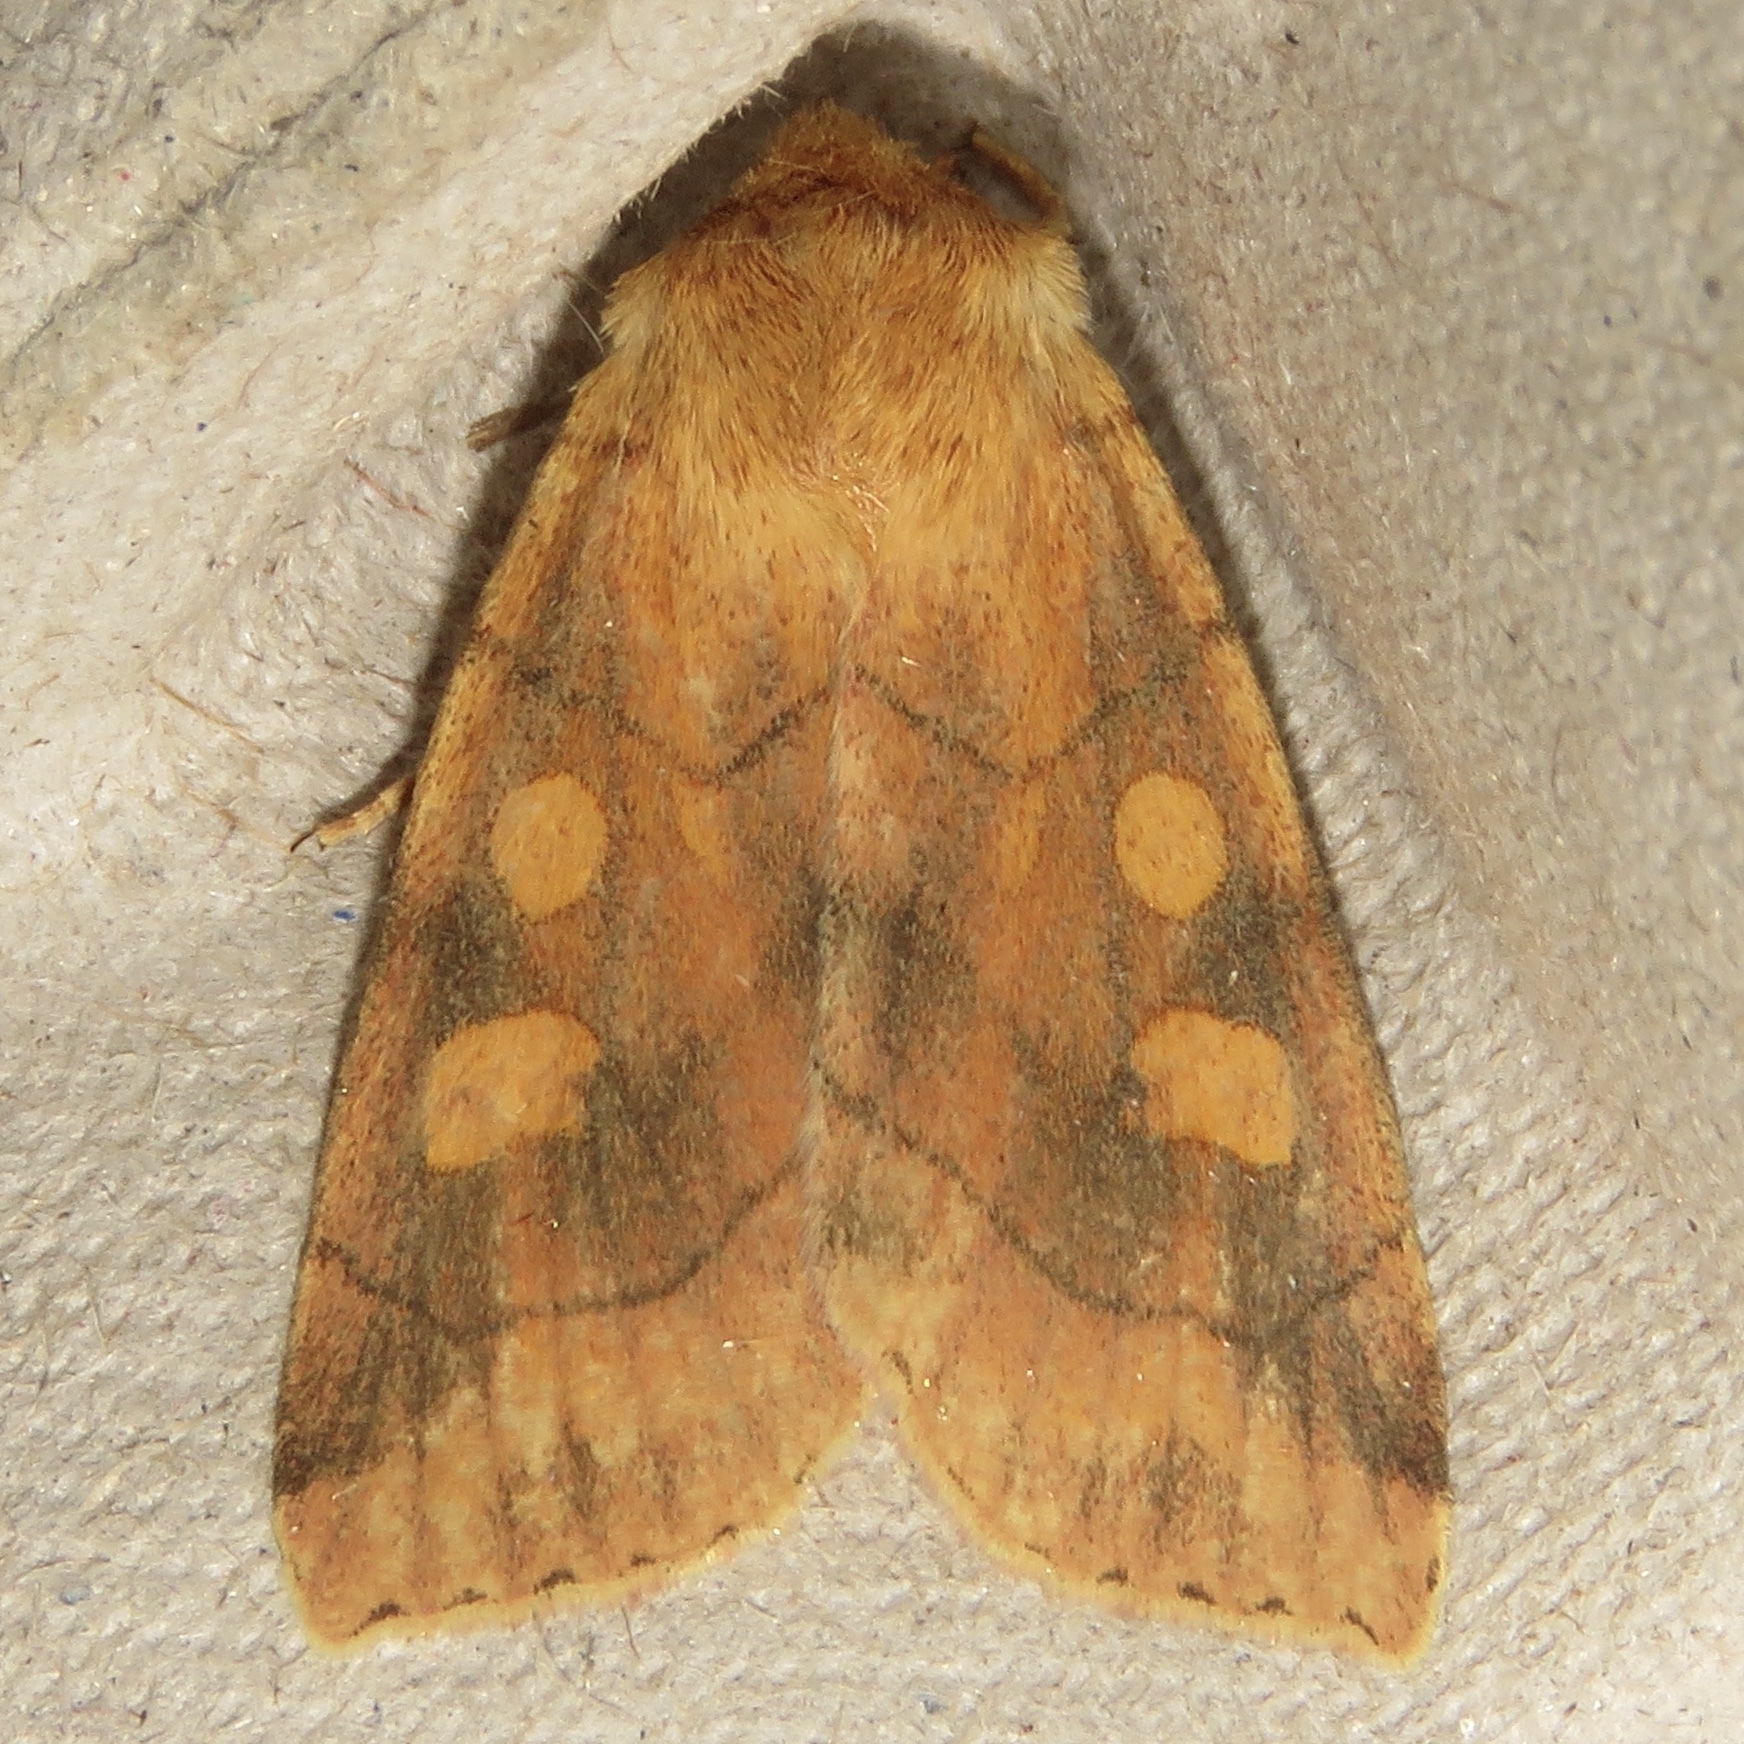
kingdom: Animalia
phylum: Arthropoda
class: Insecta
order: Lepidoptera
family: Noctuidae
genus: Enargia
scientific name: Enargia decolor
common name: Aspen twoleaf tier moth
